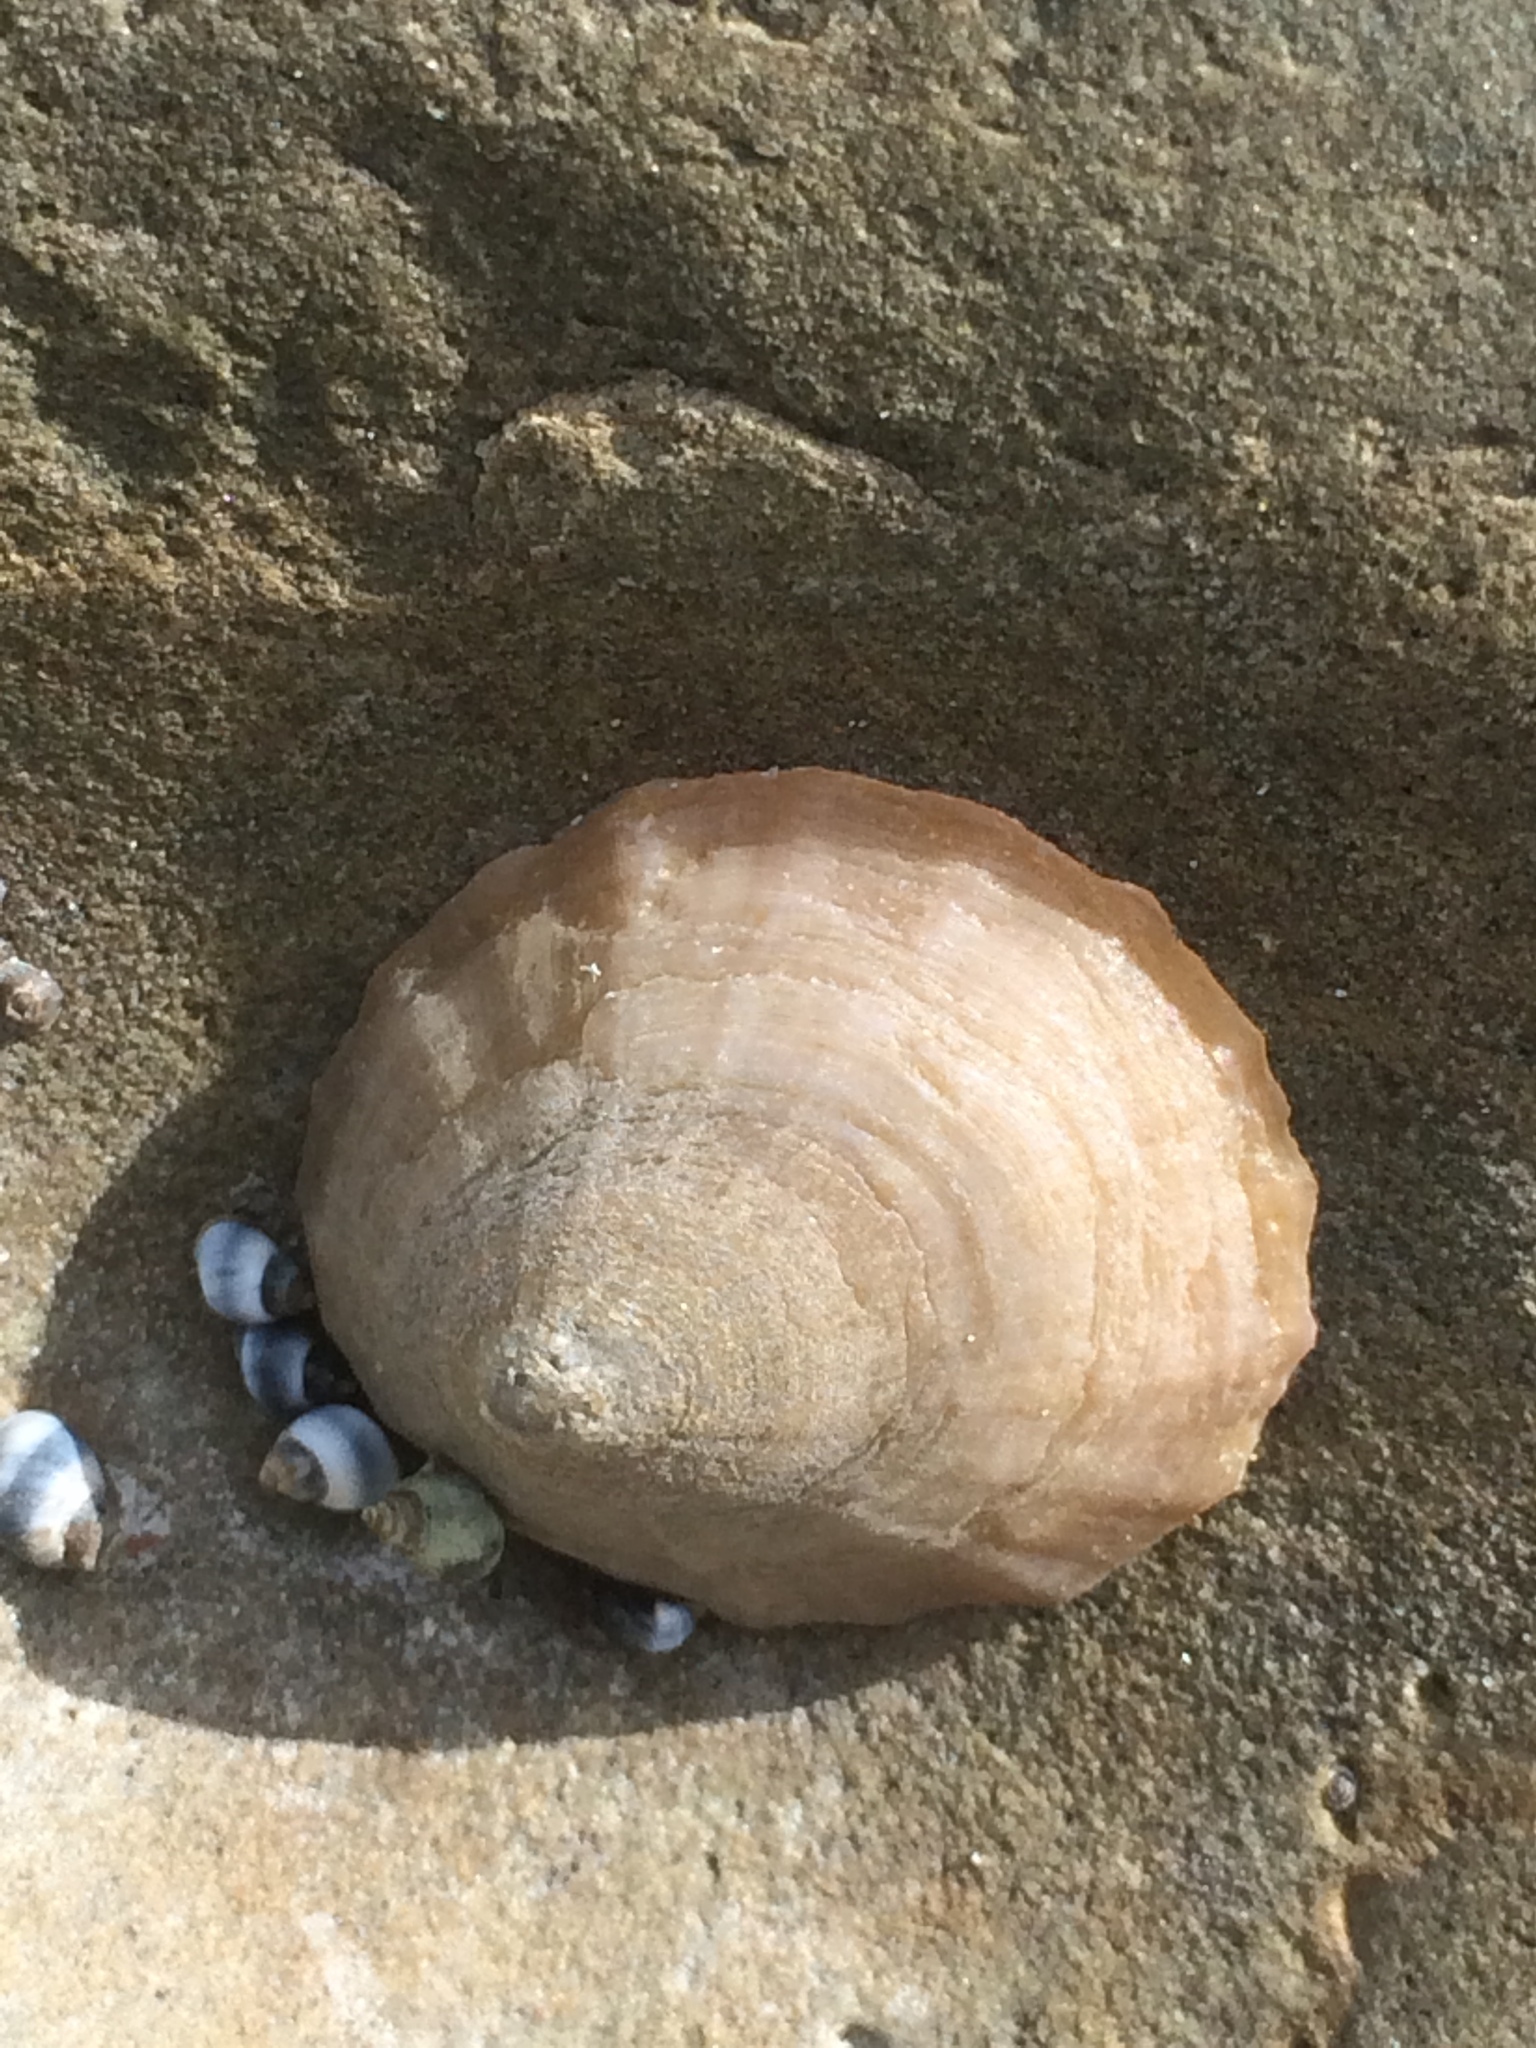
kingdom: Animalia
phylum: Mollusca
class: Gastropoda
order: Littorinimorpha
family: Littorinidae
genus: Austrolittorina
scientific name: Austrolittorina antipodum
